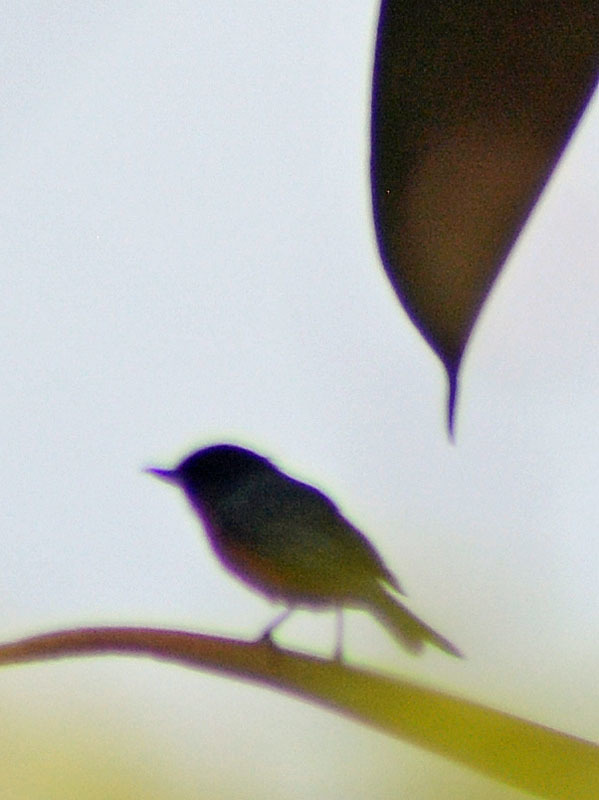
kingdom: Animalia
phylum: Chordata
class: Aves
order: Passeriformes
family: Thraupidae
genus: Diglossa
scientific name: Diglossa baritula
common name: Cinnamon-bellied flowerpiercer
